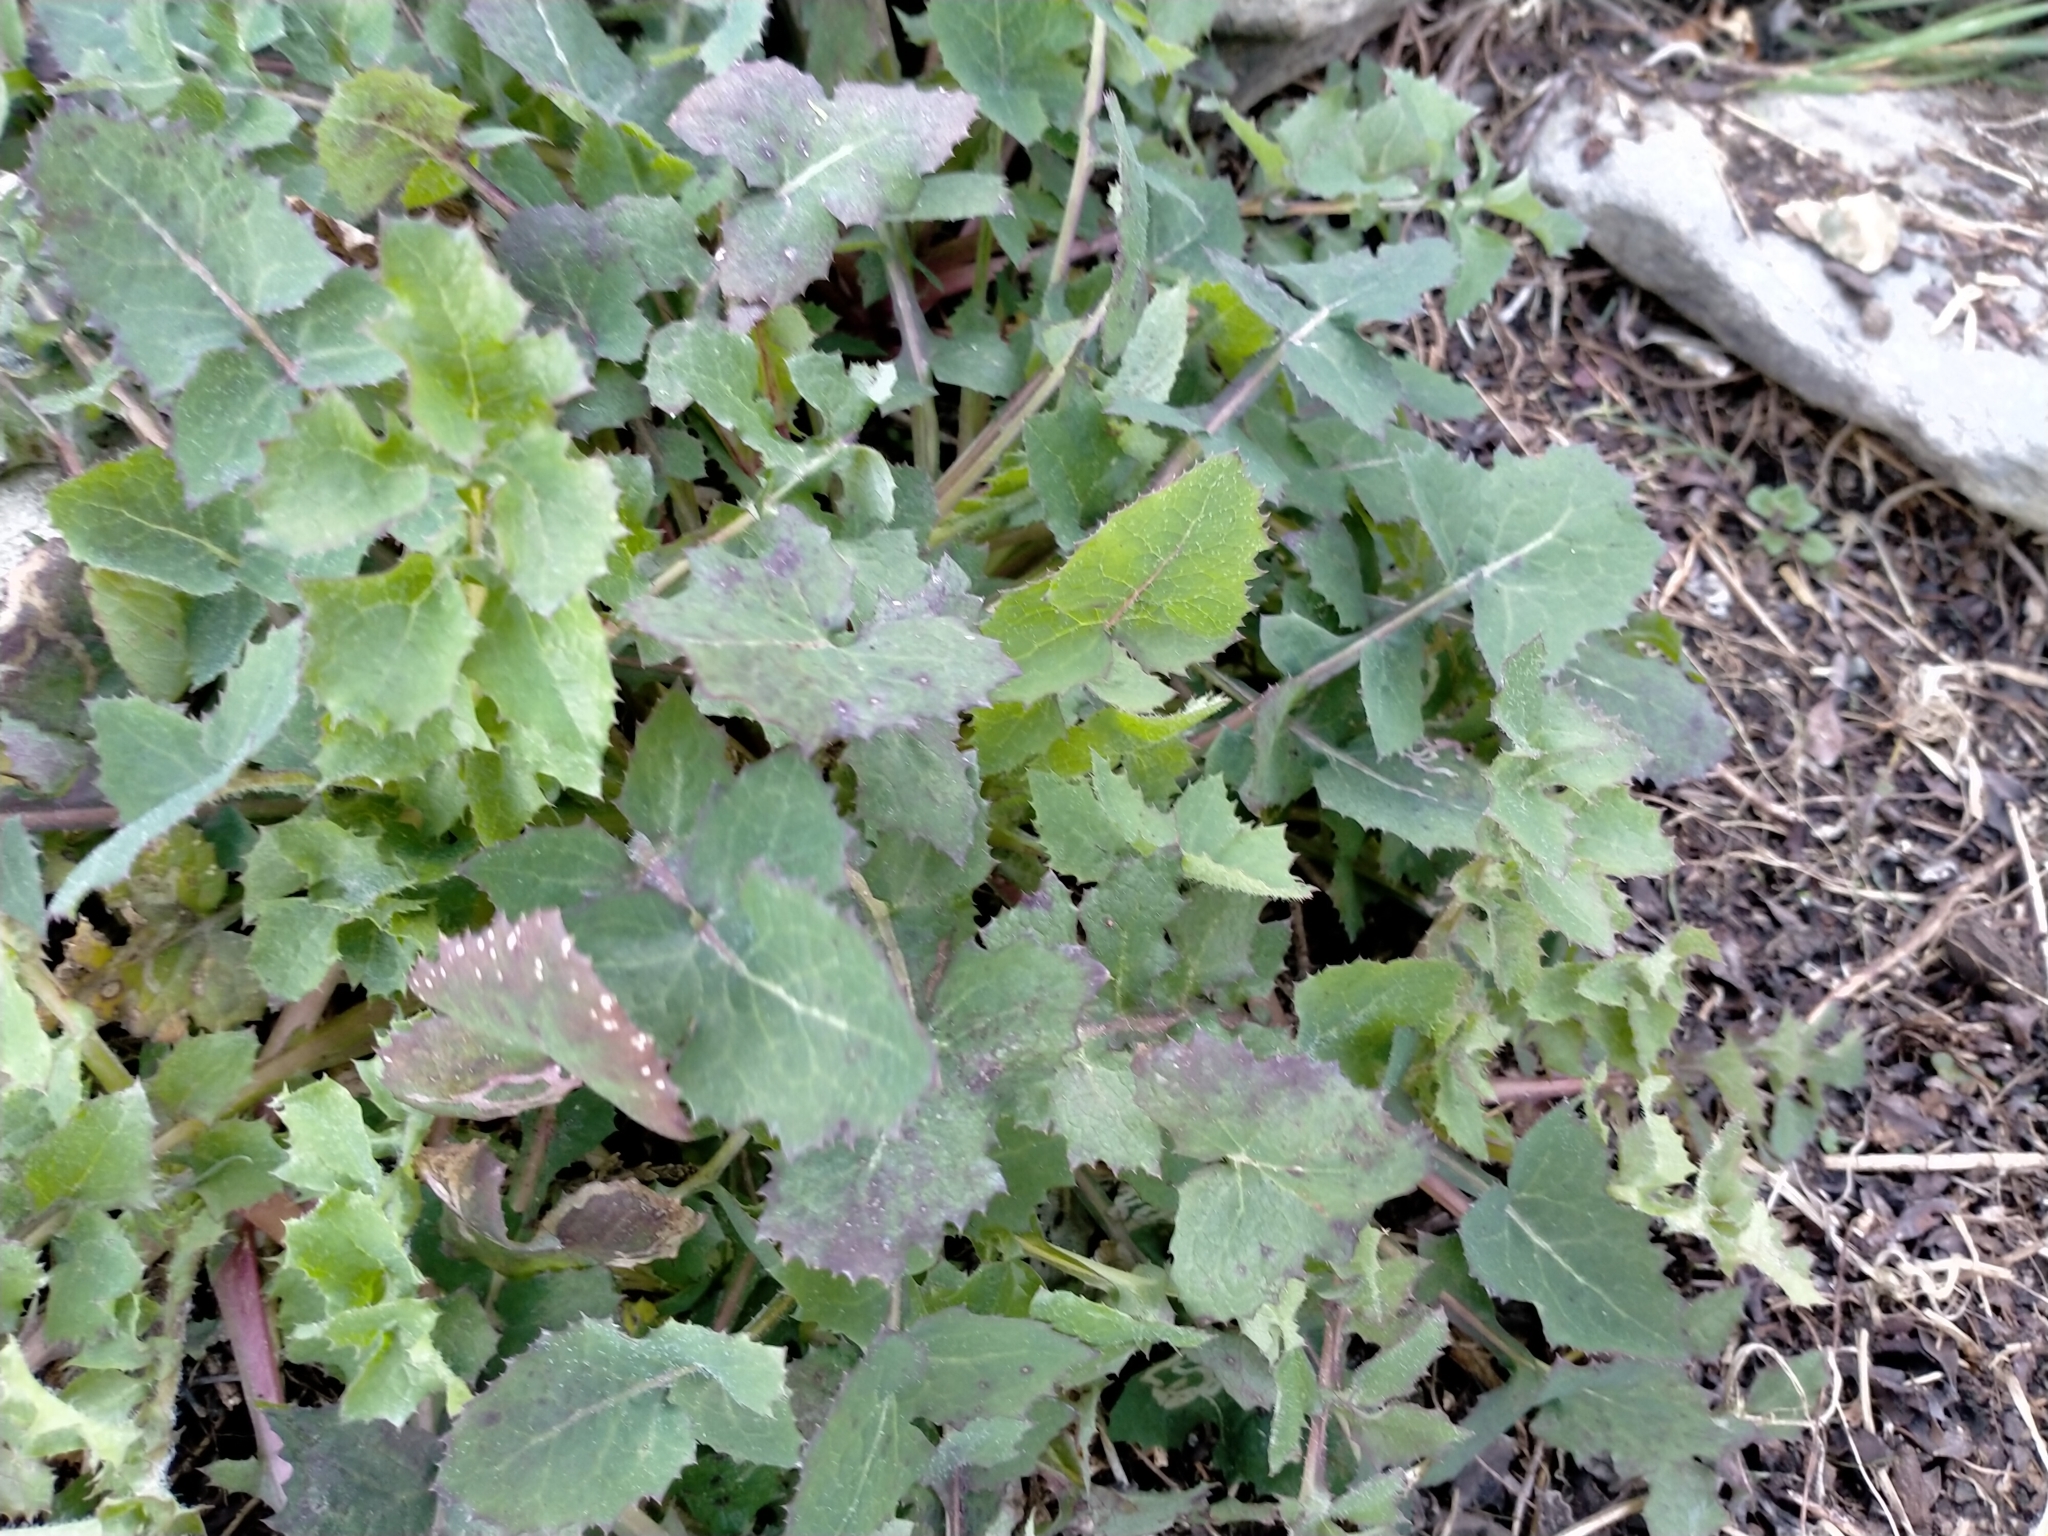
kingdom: Plantae
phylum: Tracheophyta
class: Magnoliopsida
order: Asterales
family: Asteraceae
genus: Sonchus
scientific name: Sonchus oleraceus
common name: Common sowthistle
